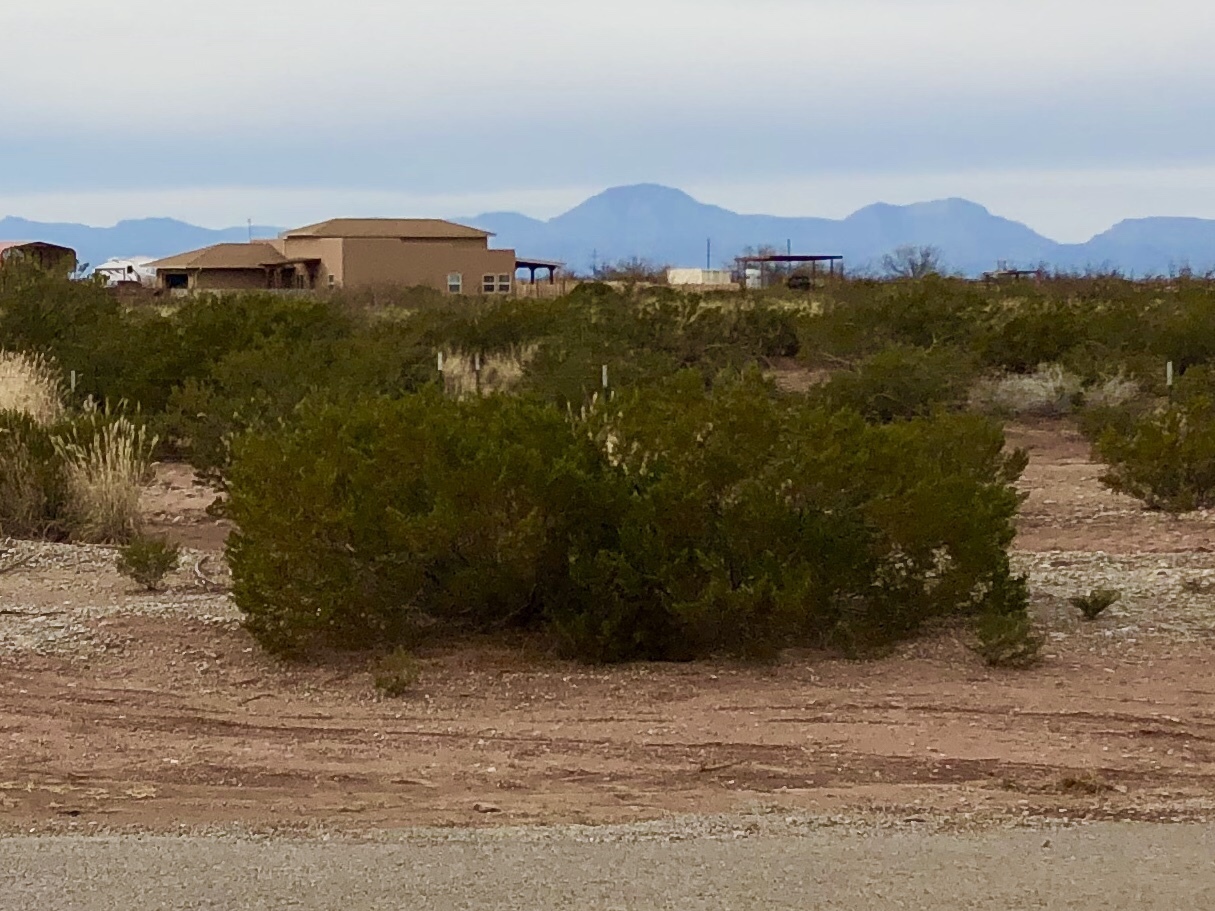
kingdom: Plantae
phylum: Tracheophyta
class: Magnoliopsida
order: Zygophyllales
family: Zygophyllaceae
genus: Larrea
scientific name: Larrea tridentata
